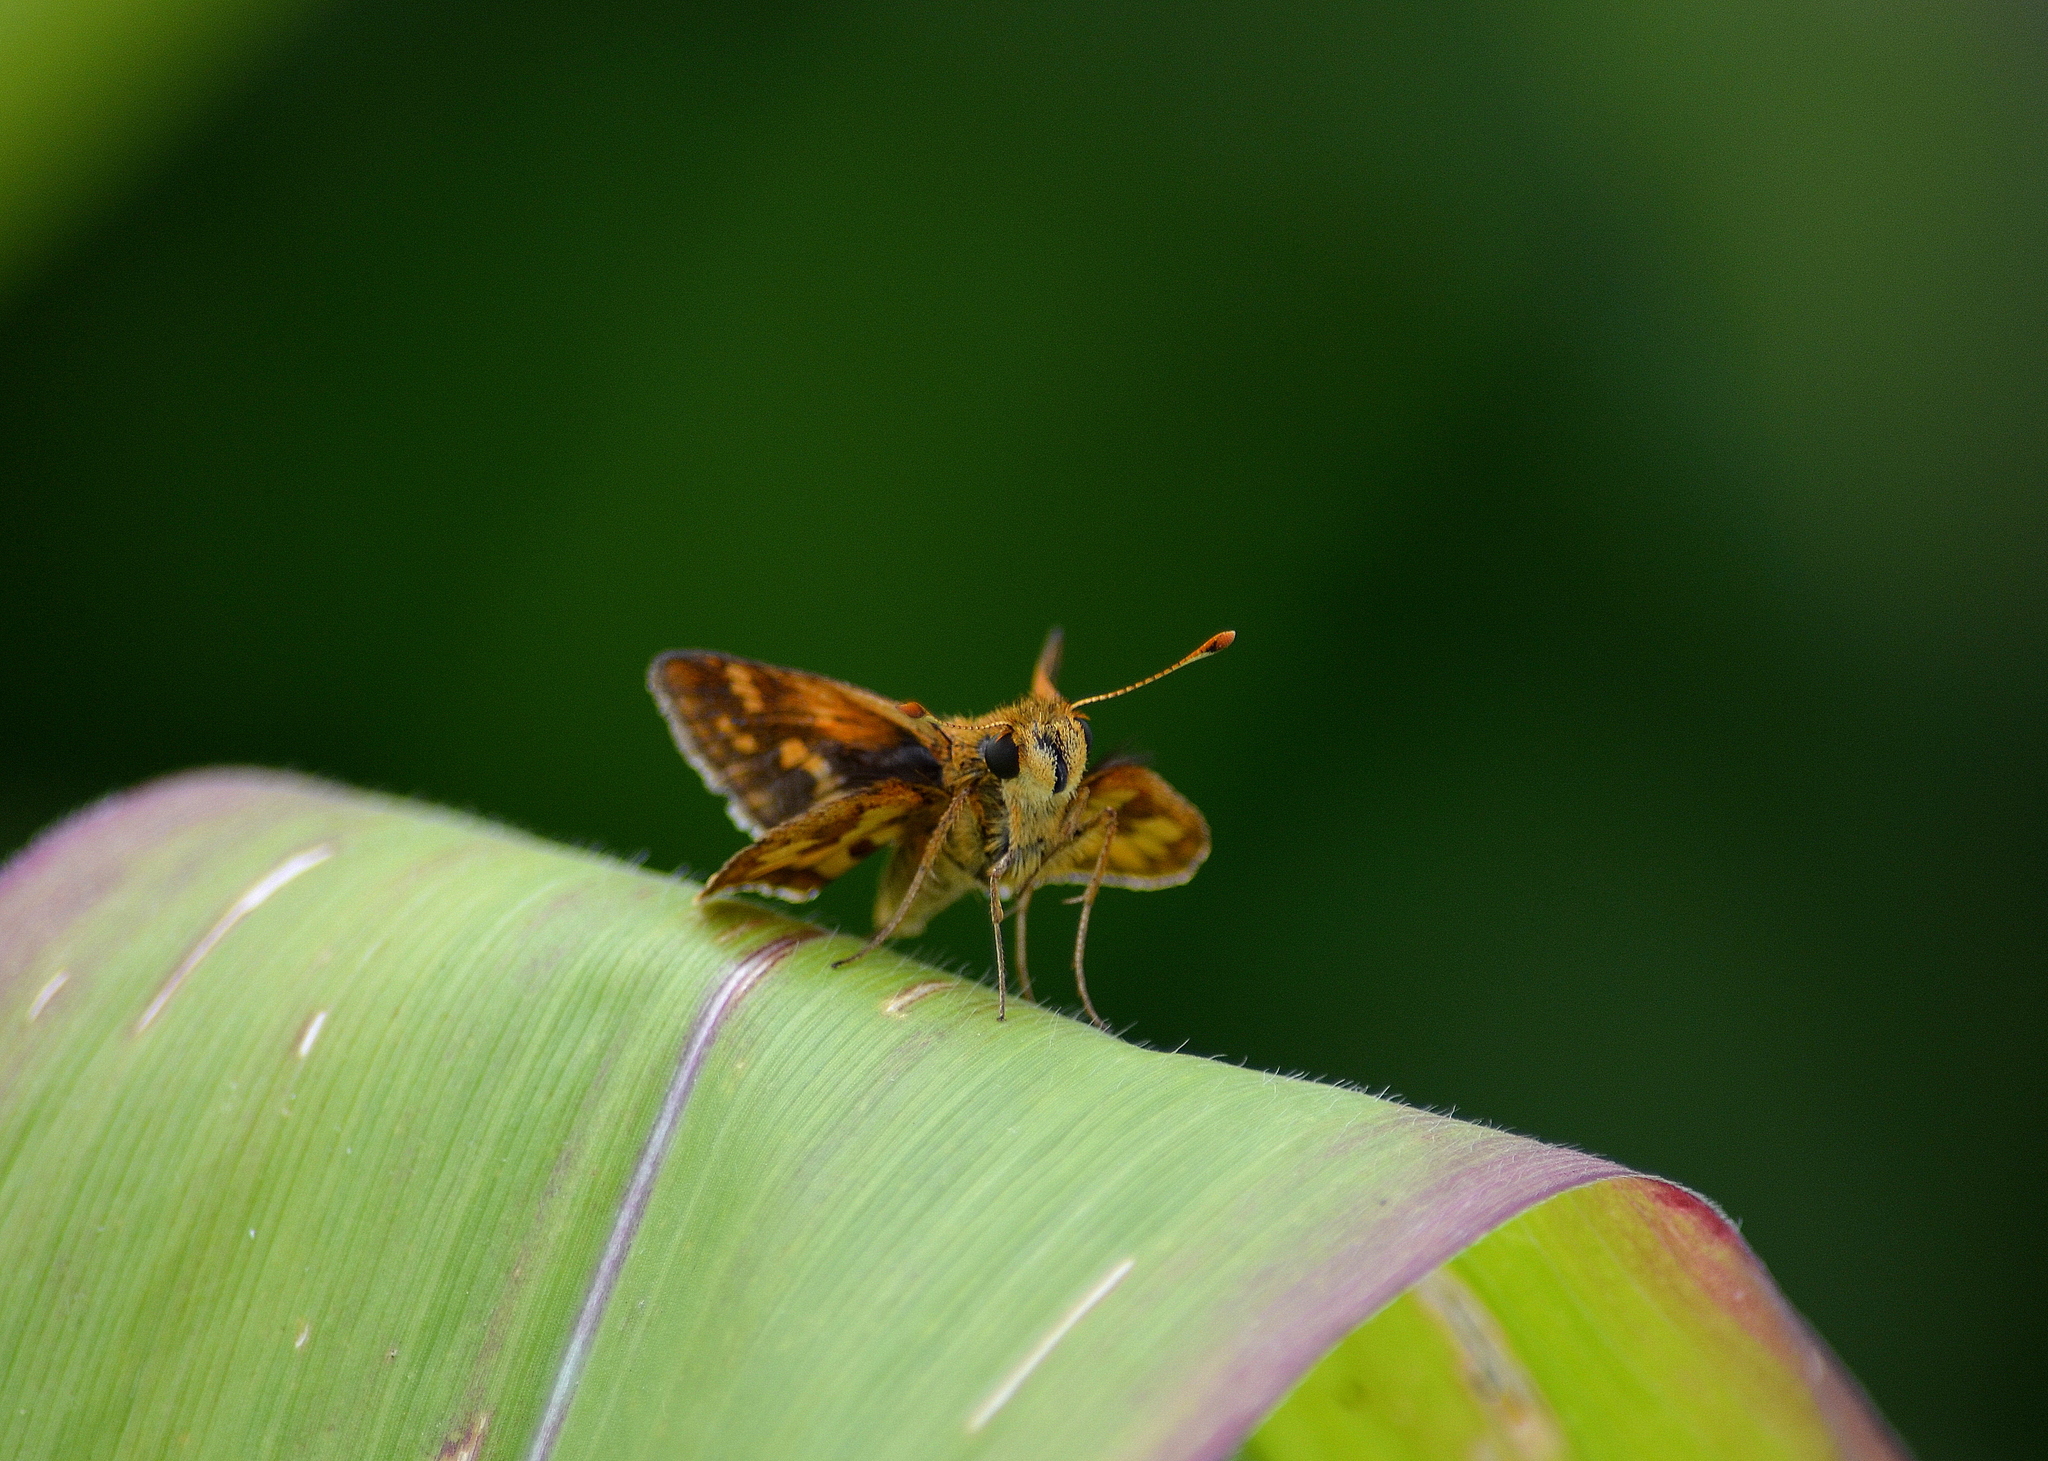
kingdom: Animalia
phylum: Arthropoda
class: Insecta
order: Lepidoptera
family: Hesperiidae
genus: Polites
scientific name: Polites coras
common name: Peck's skipper
